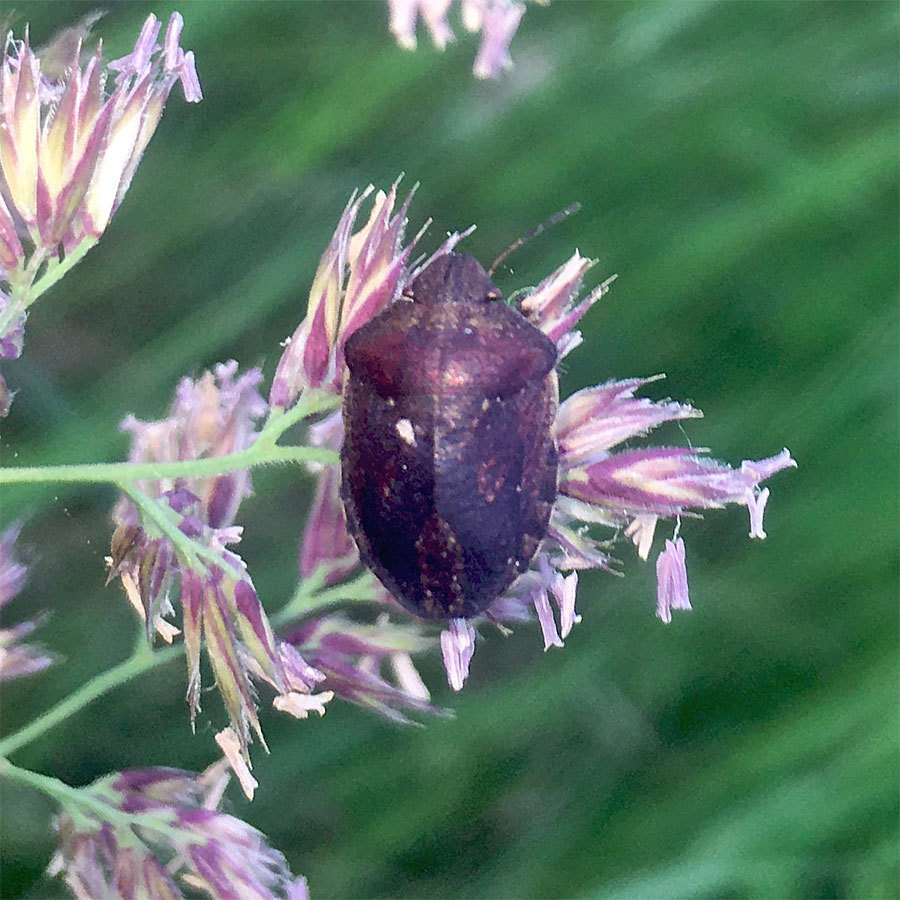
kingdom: Animalia
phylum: Arthropoda
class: Insecta
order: Hemiptera
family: Scutelleridae
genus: Eurygaster
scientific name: Eurygaster testudinaria
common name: Tortoise bug
